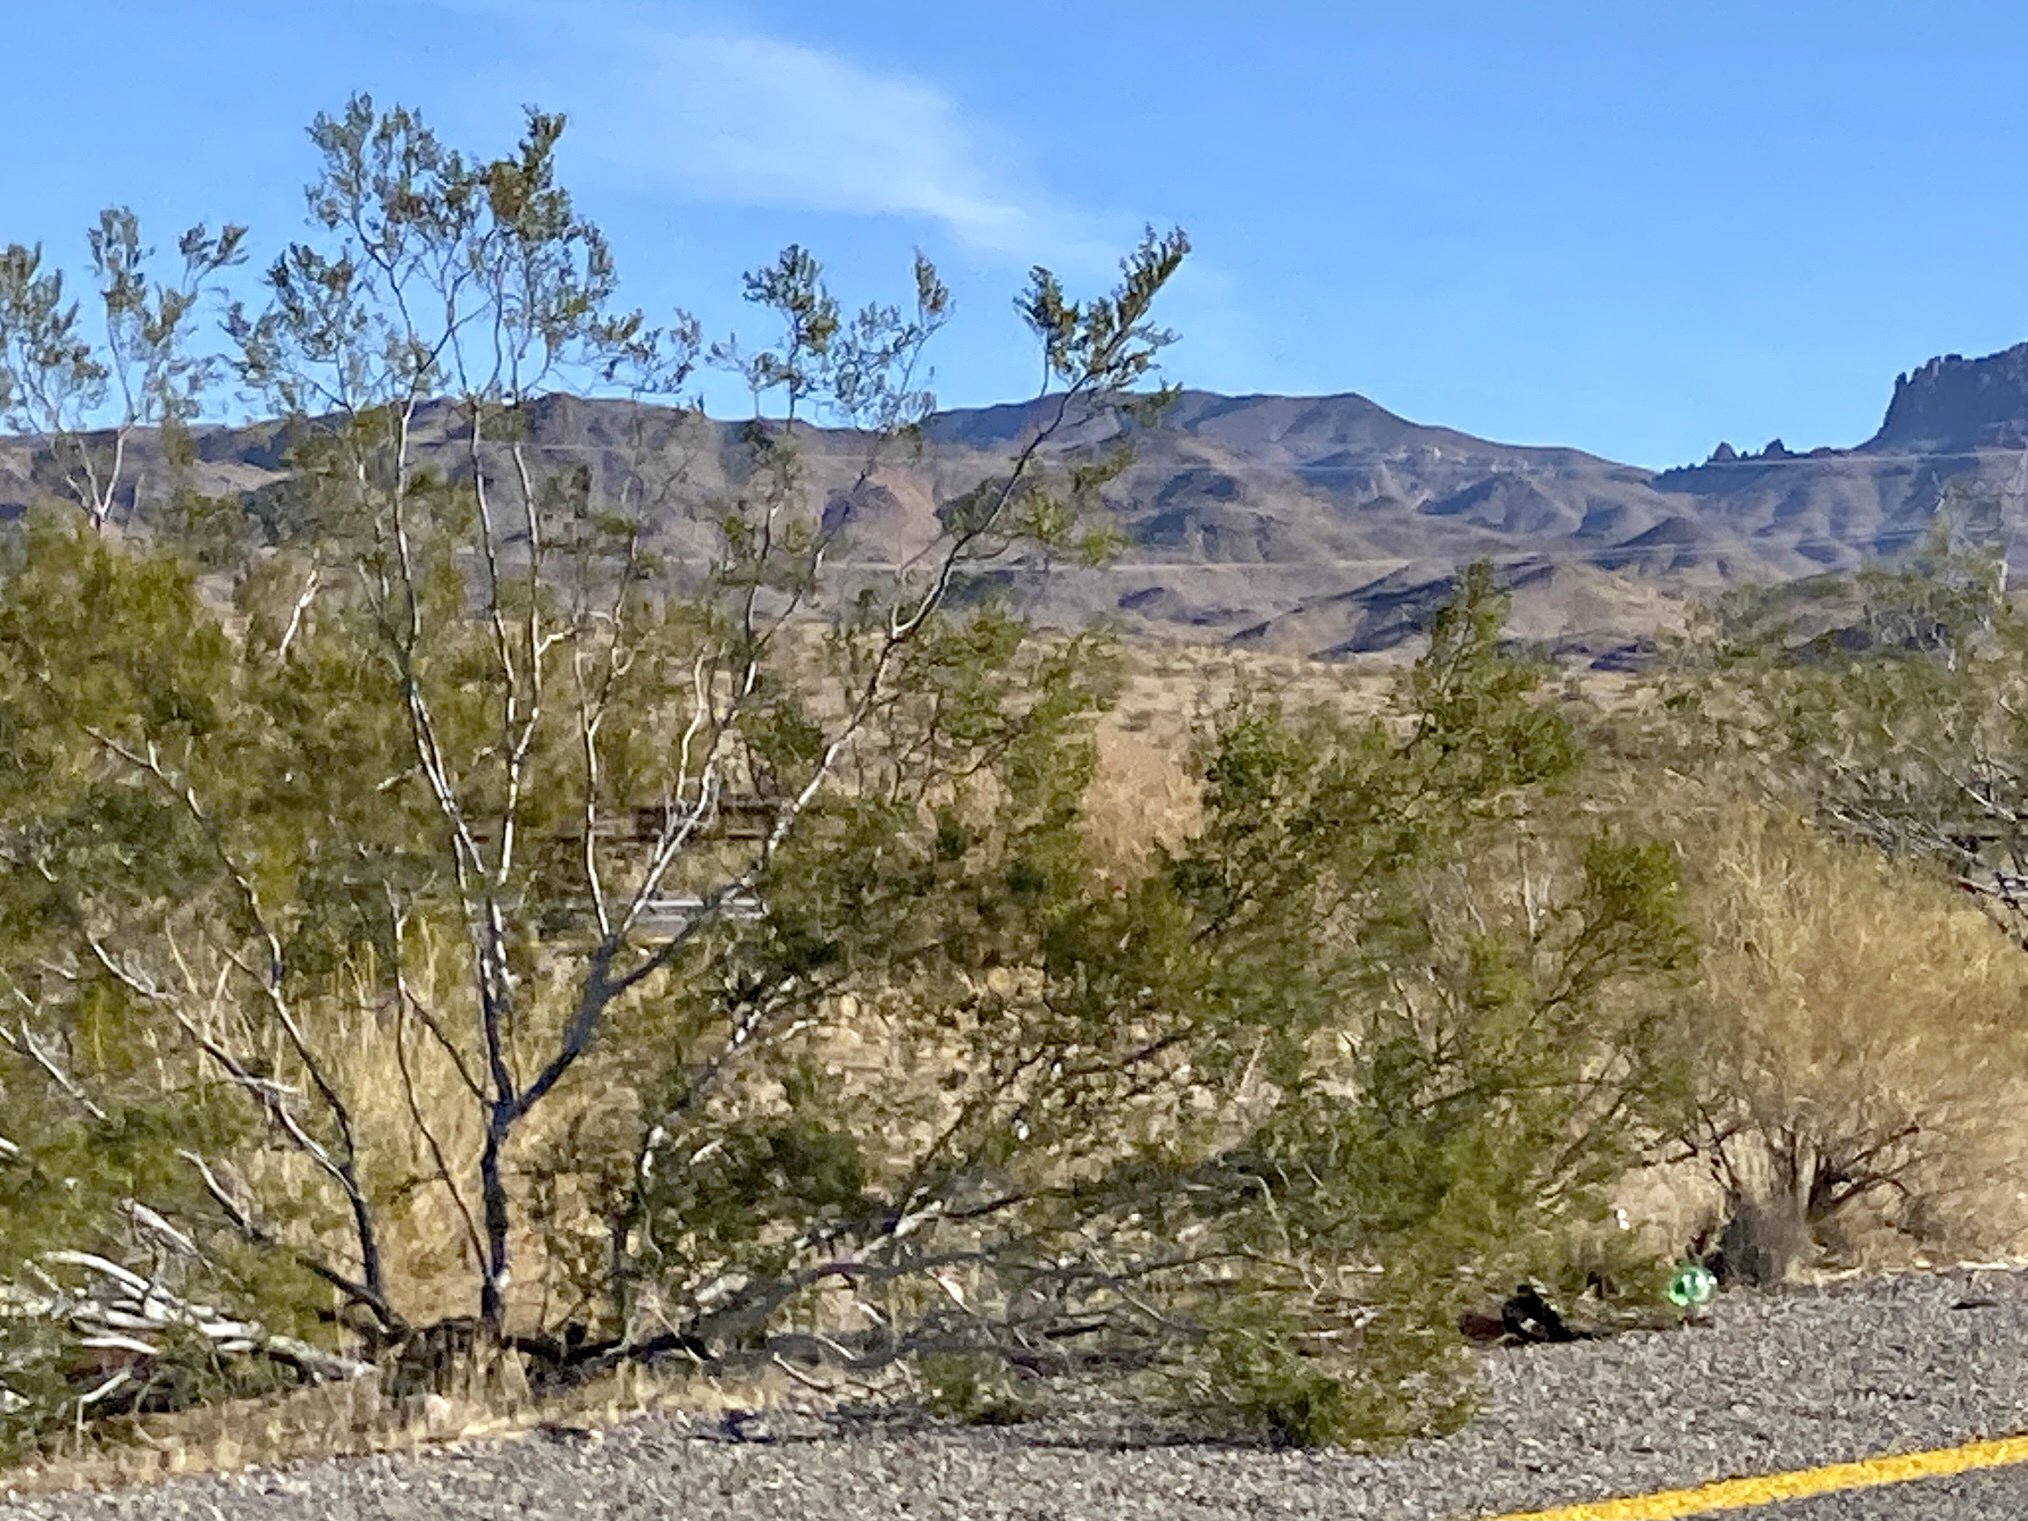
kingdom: Plantae
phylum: Tracheophyta
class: Magnoliopsida
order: Zygophyllales
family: Zygophyllaceae
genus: Larrea
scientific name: Larrea tridentata
